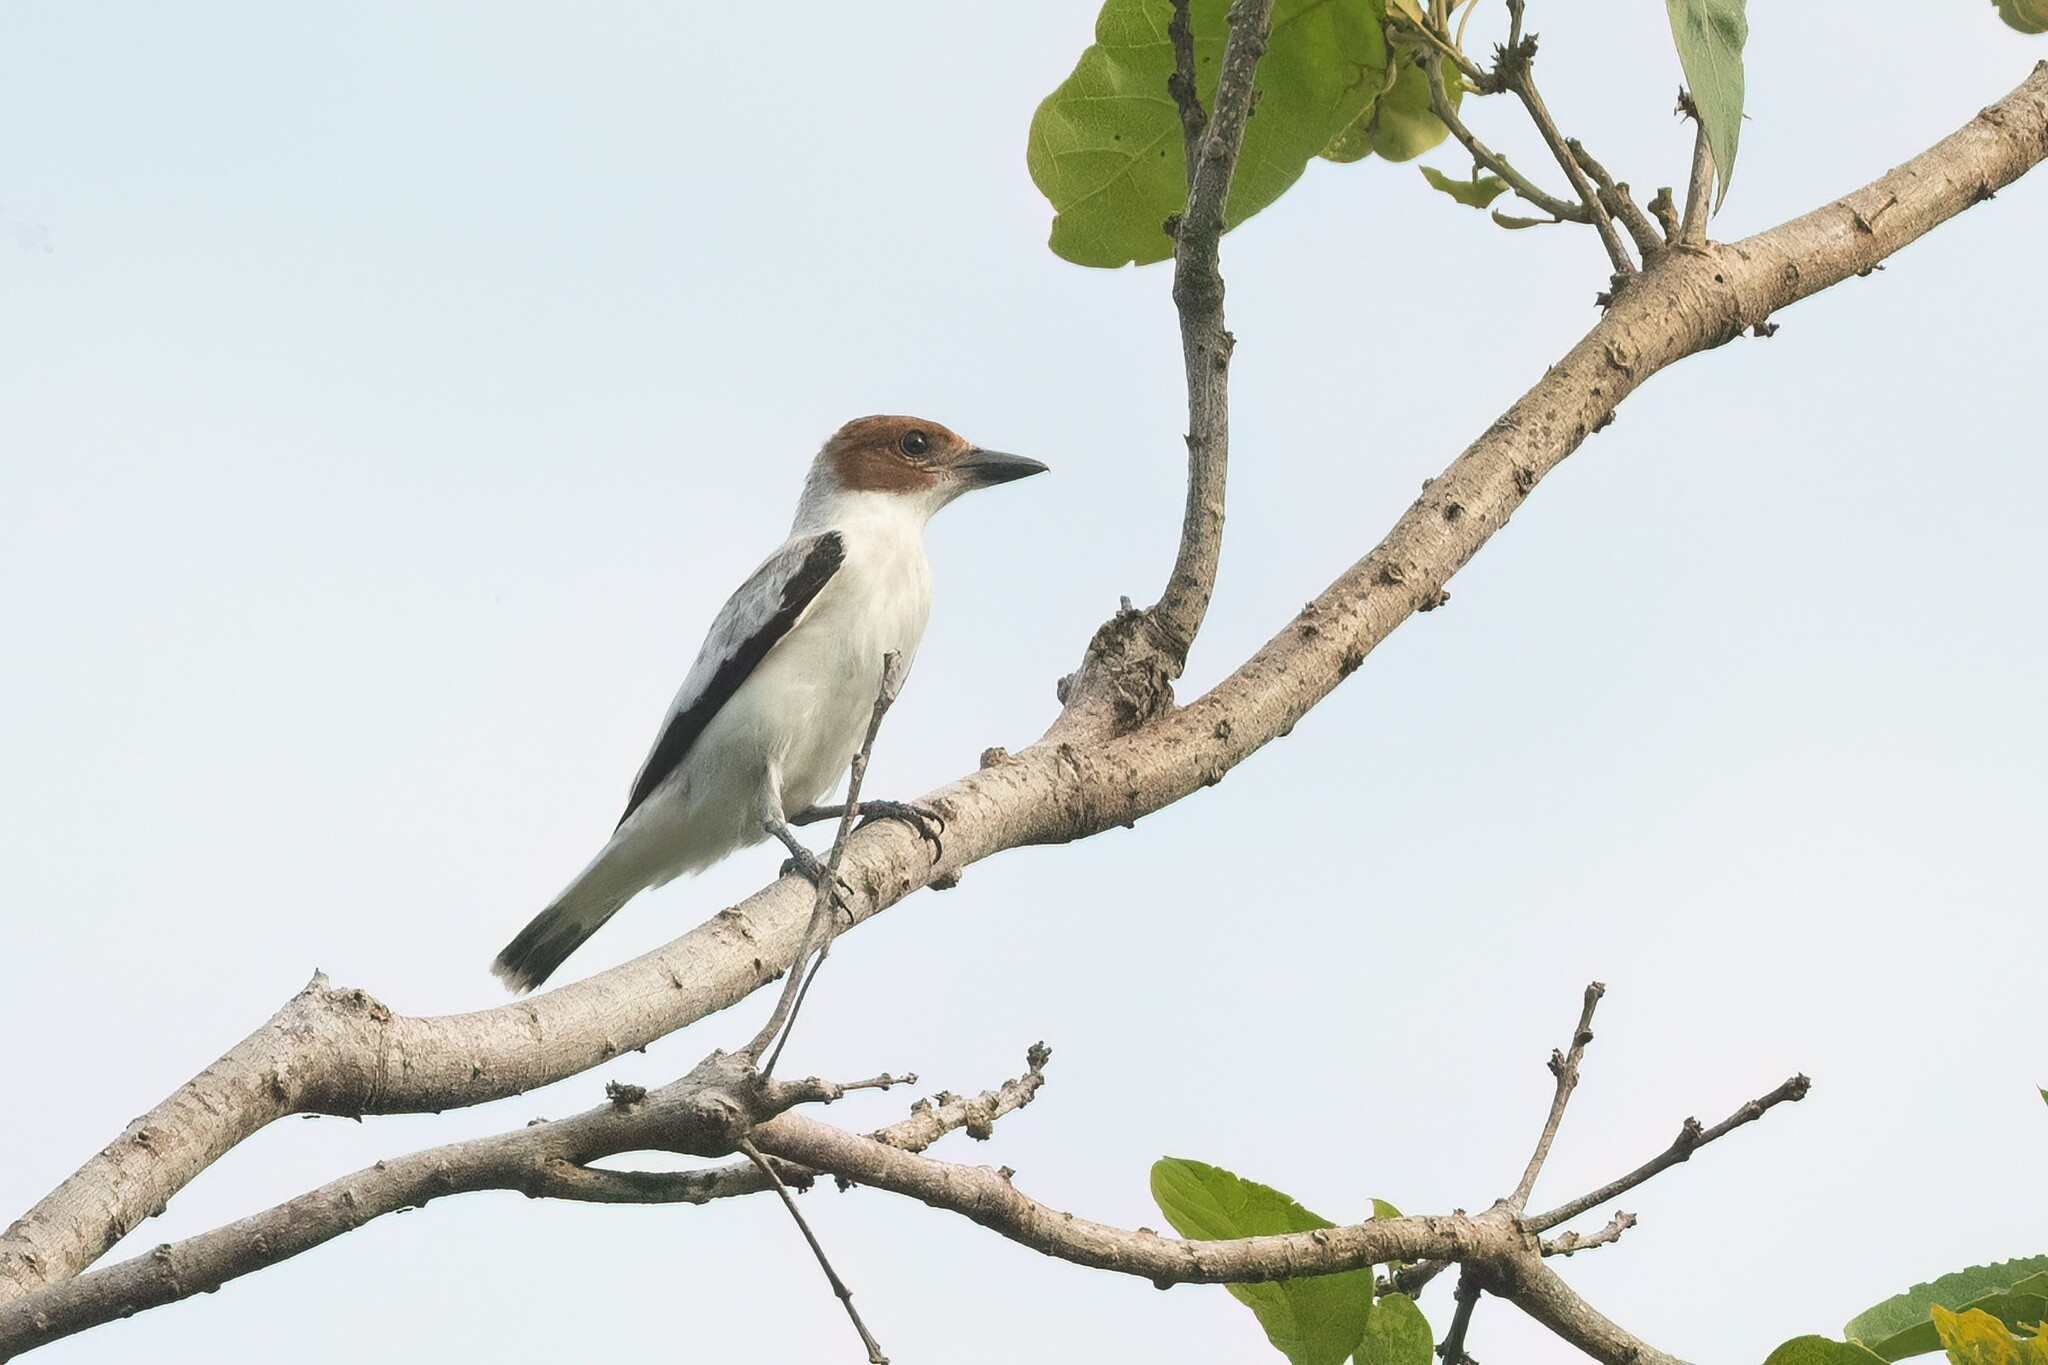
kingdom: Animalia
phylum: Chordata
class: Aves
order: Passeriformes
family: Cotingidae
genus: Tityra
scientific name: Tityra inquisitor
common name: Black-crowned tityra
